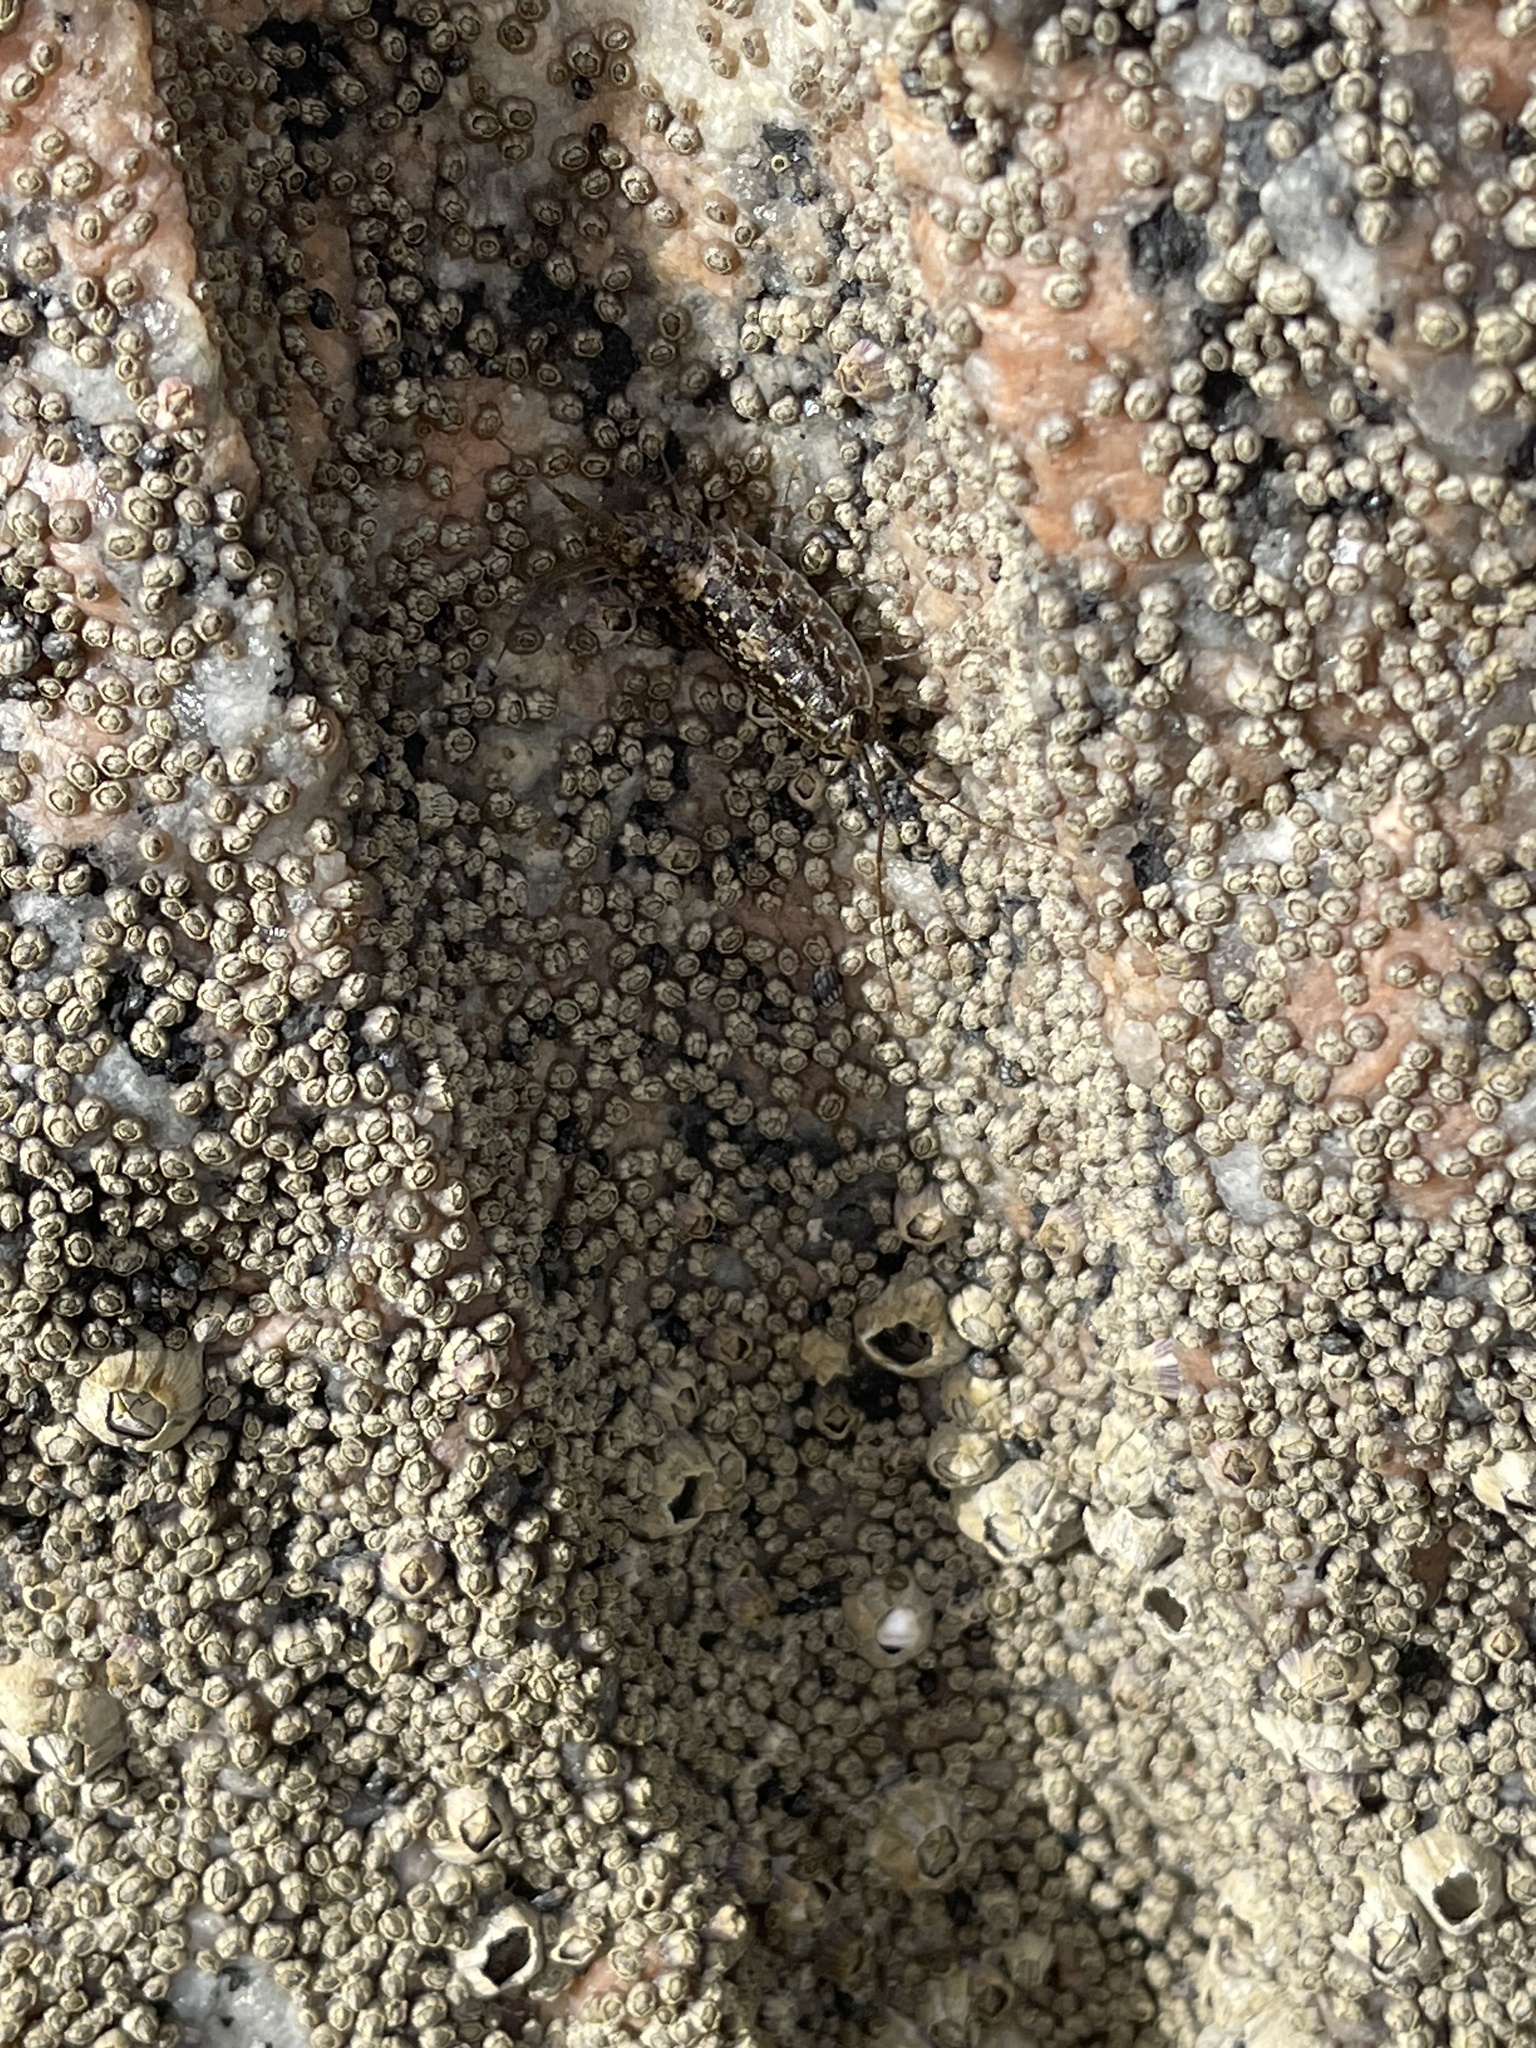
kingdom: Animalia
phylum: Arthropoda
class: Malacostraca
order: Isopoda
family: Ligiidae
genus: Ligia
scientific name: Ligia exotica
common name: Wharf roach
